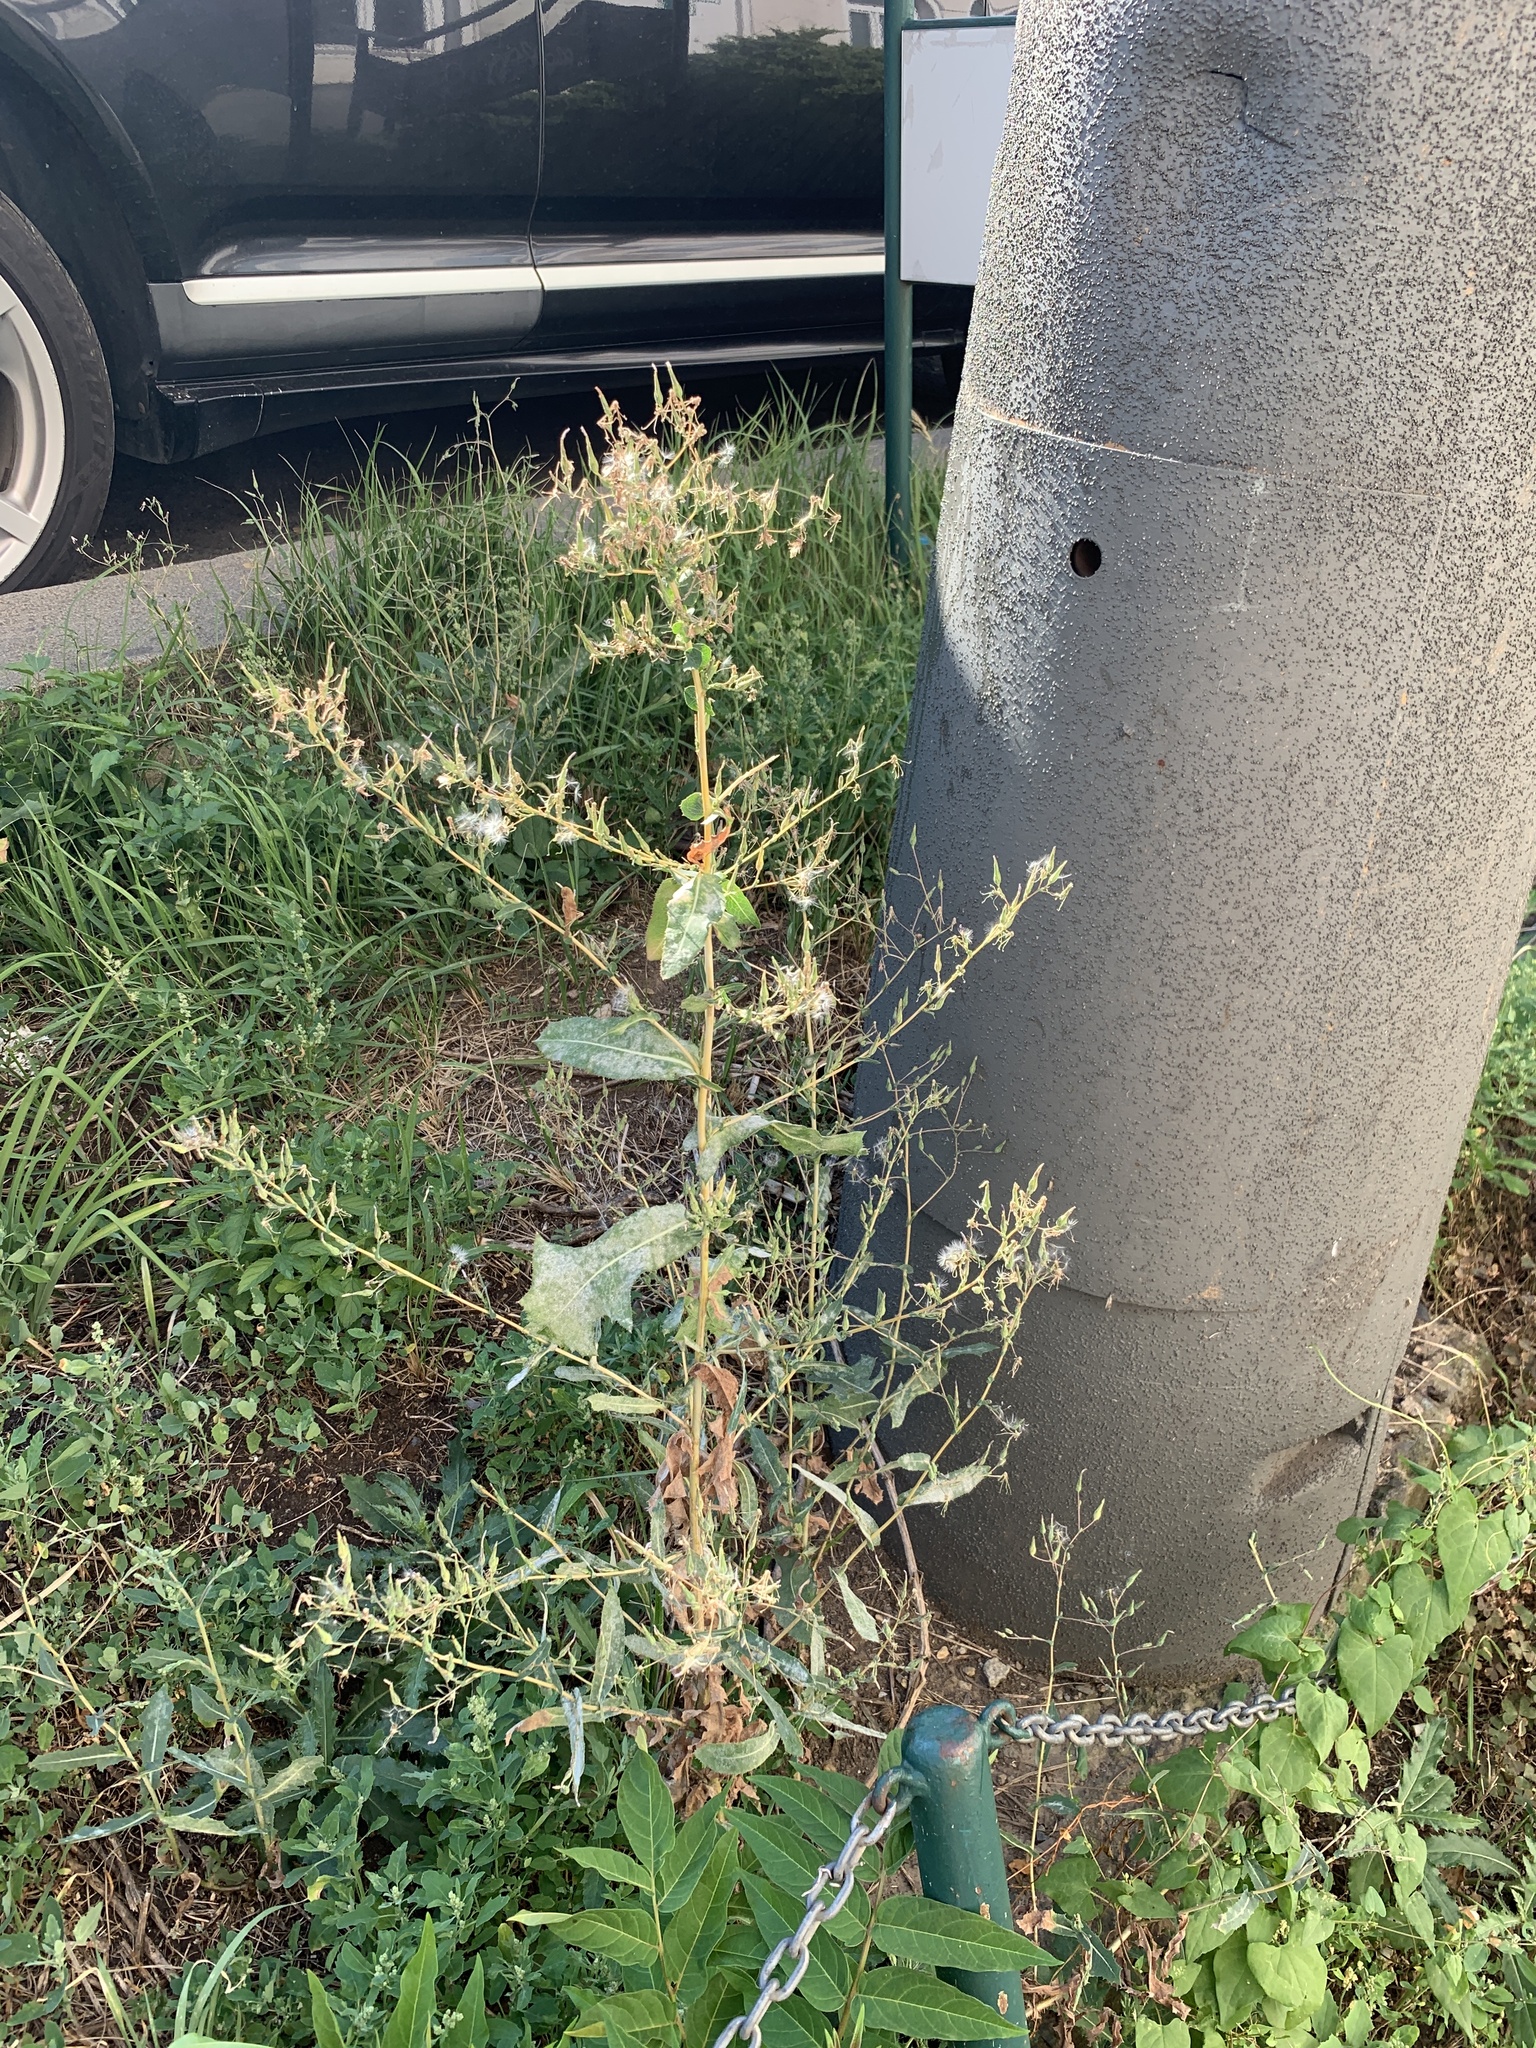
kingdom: Plantae
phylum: Tracheophyta
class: Magnoliopsida
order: Asterales
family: Asteraceae
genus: Lactuca
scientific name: Lactuca serriola
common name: Prickly lettuce
